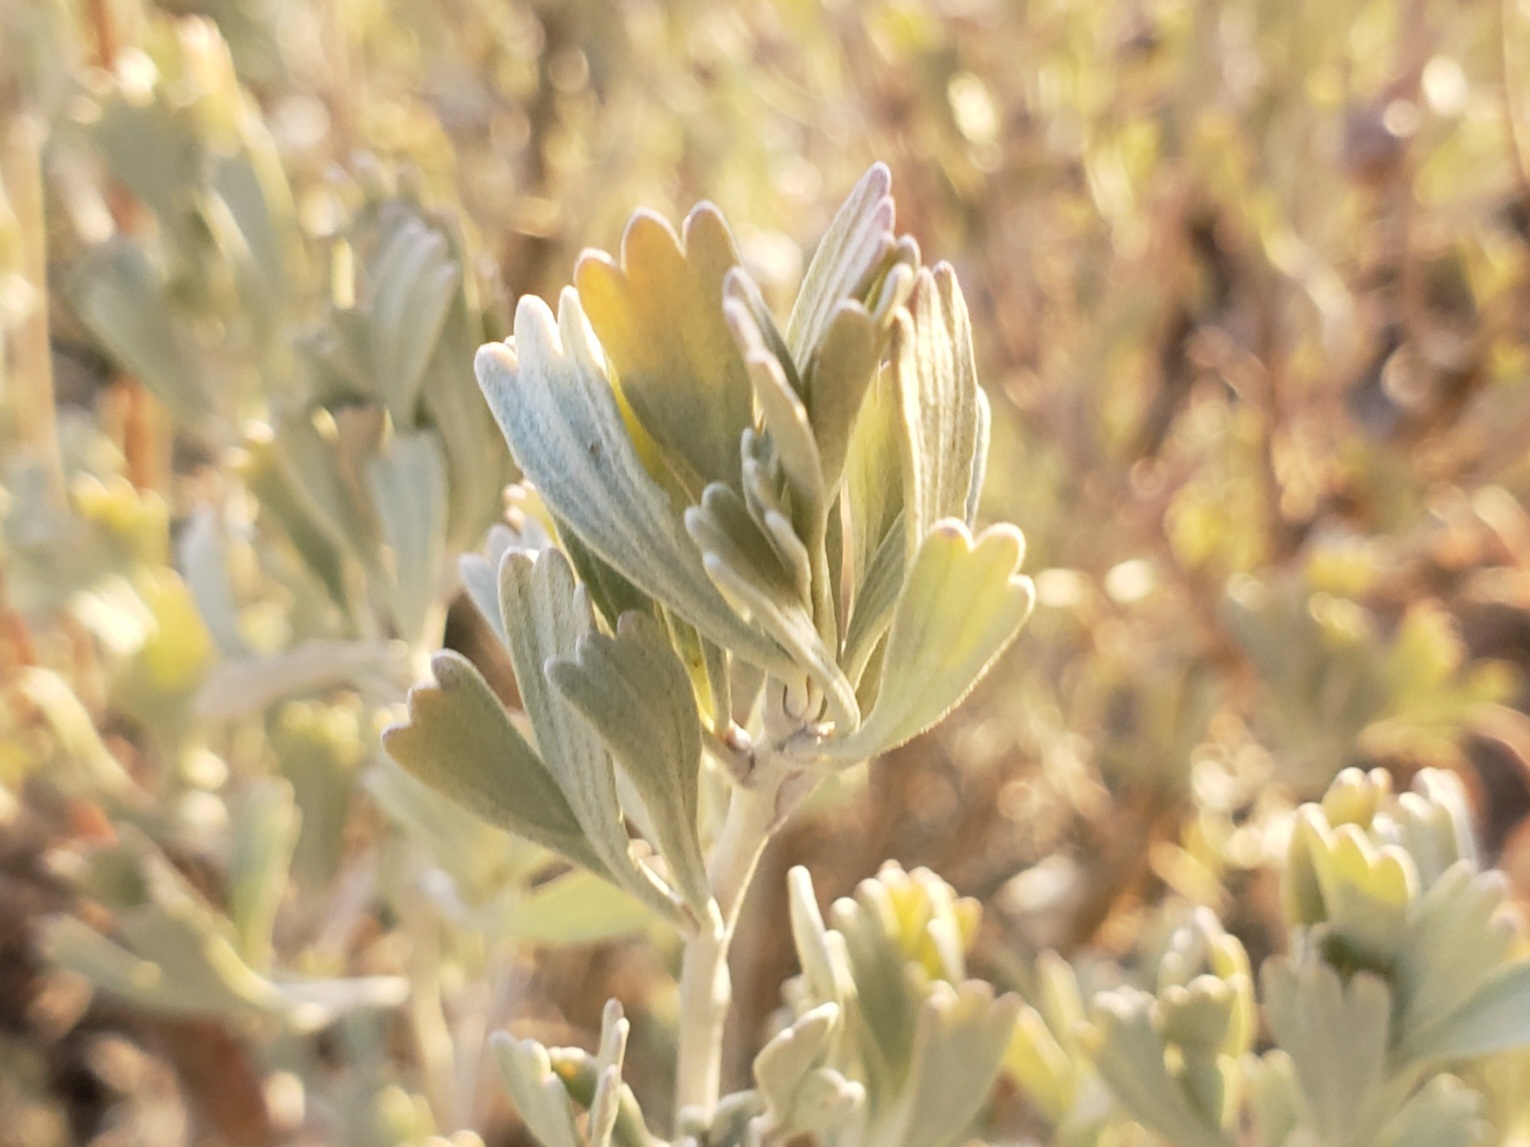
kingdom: Plantae
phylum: Tracheophyta
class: Magnoliopsida
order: Asterales
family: Asteraceae
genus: Artemisia
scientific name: Artemisia tridentata
